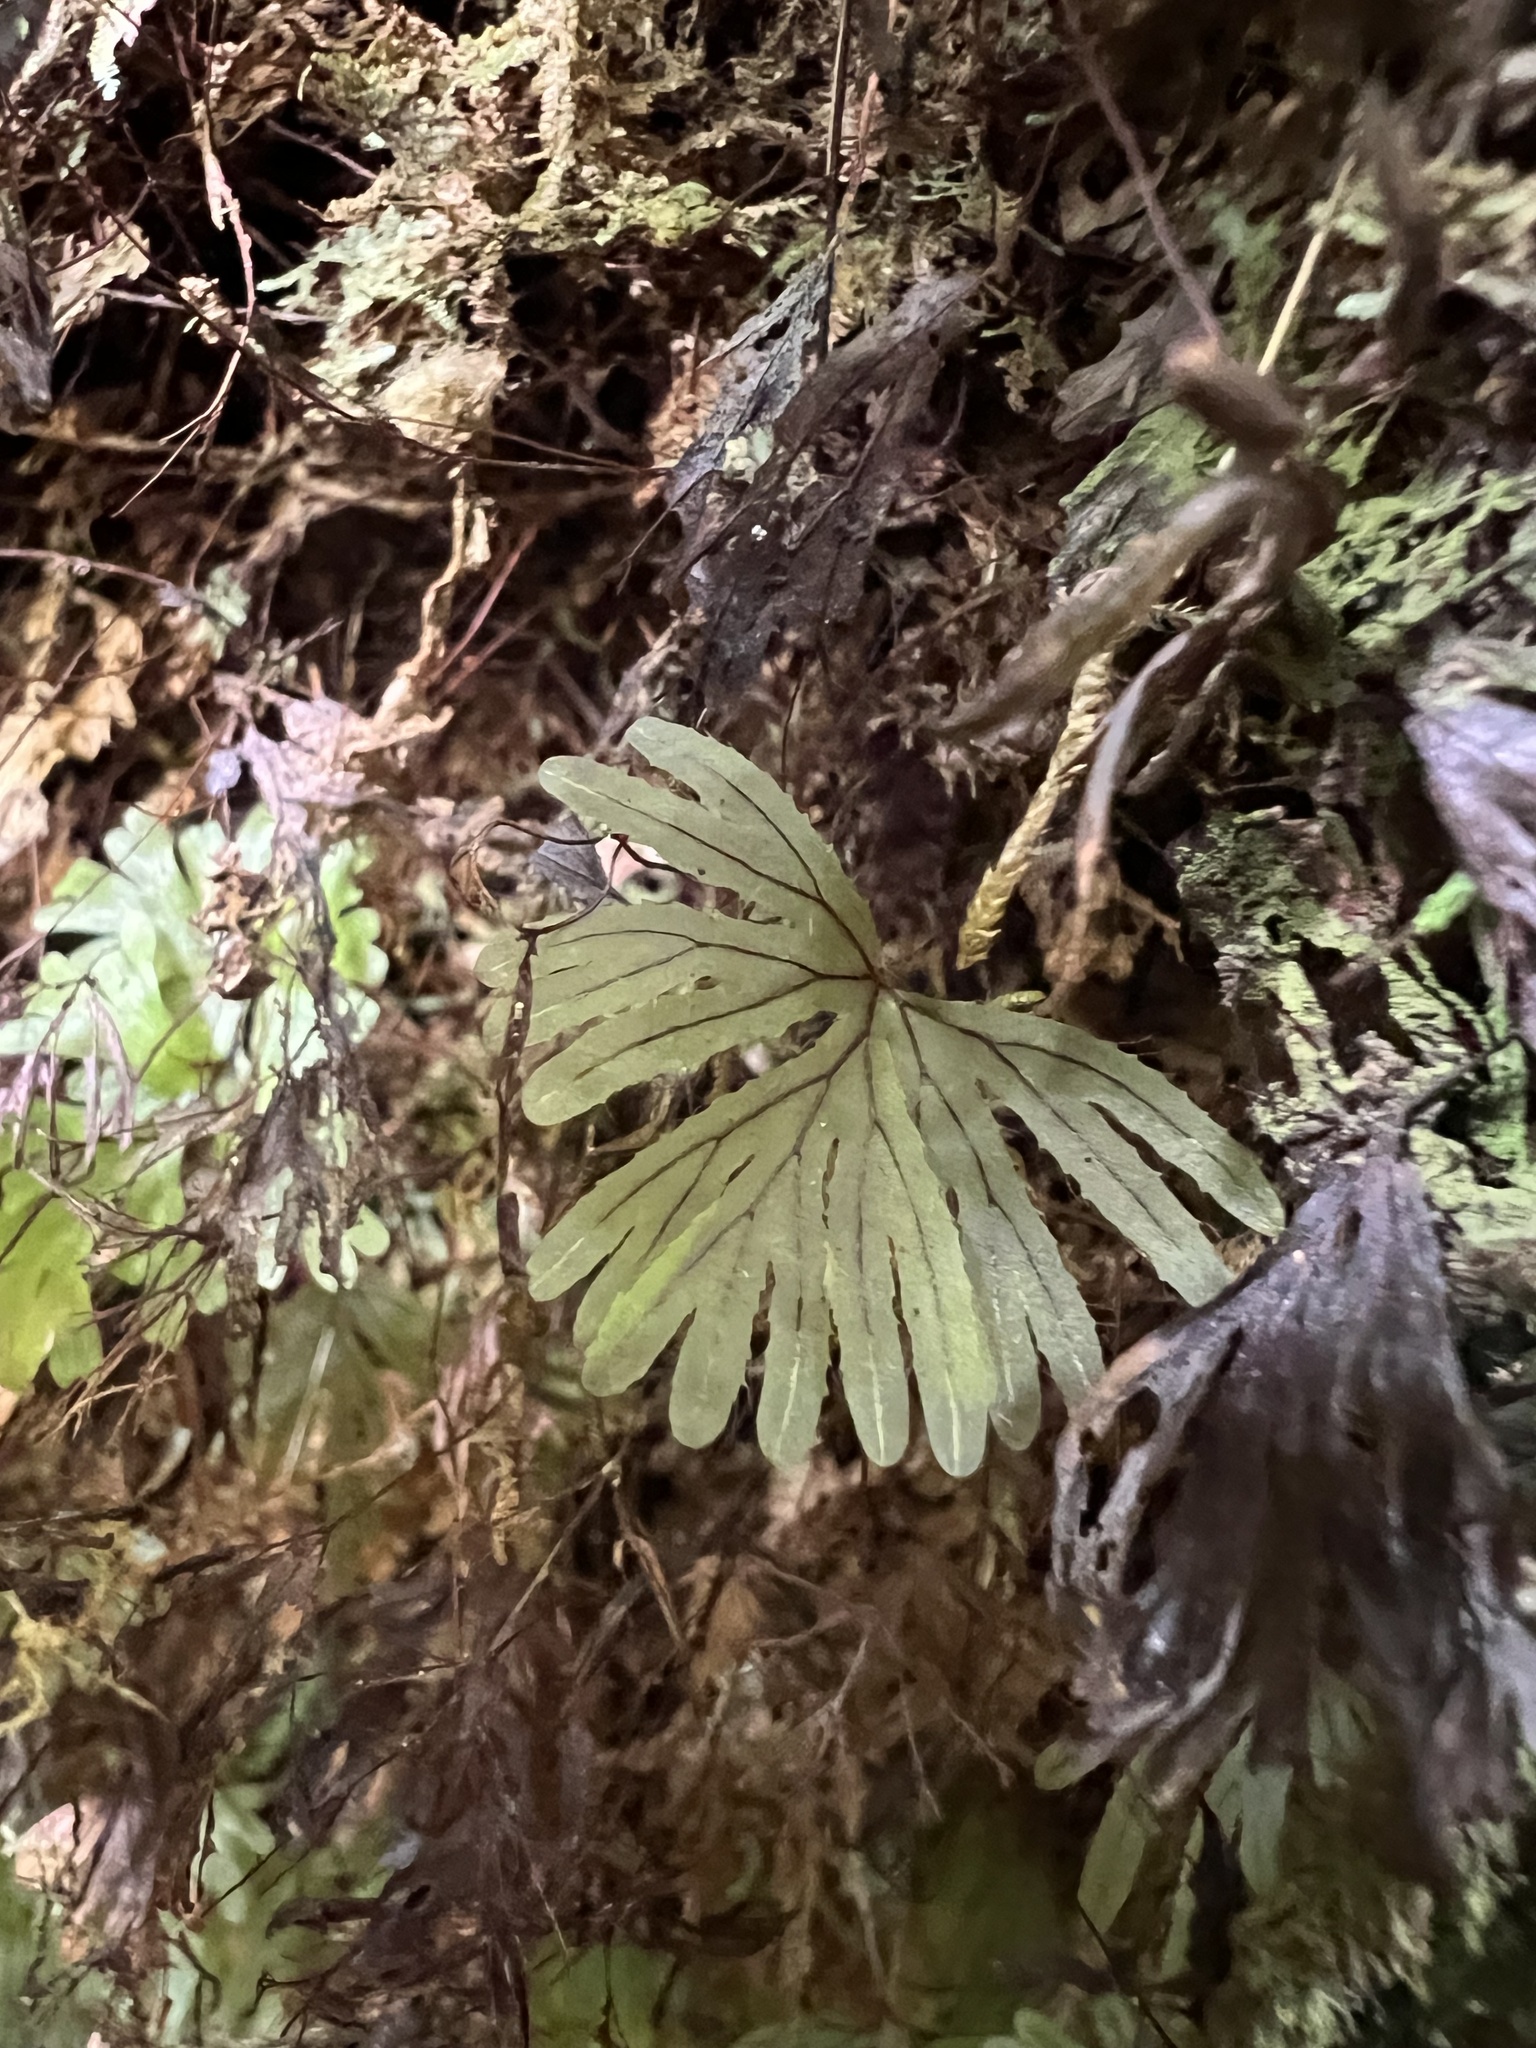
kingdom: Plantae
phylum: Tracheophyta
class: Polypodiopsida
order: Hymenophyllales
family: Hymenophyllaceae
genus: Hymenophyllum
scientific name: Hymenophyllum lyallii
